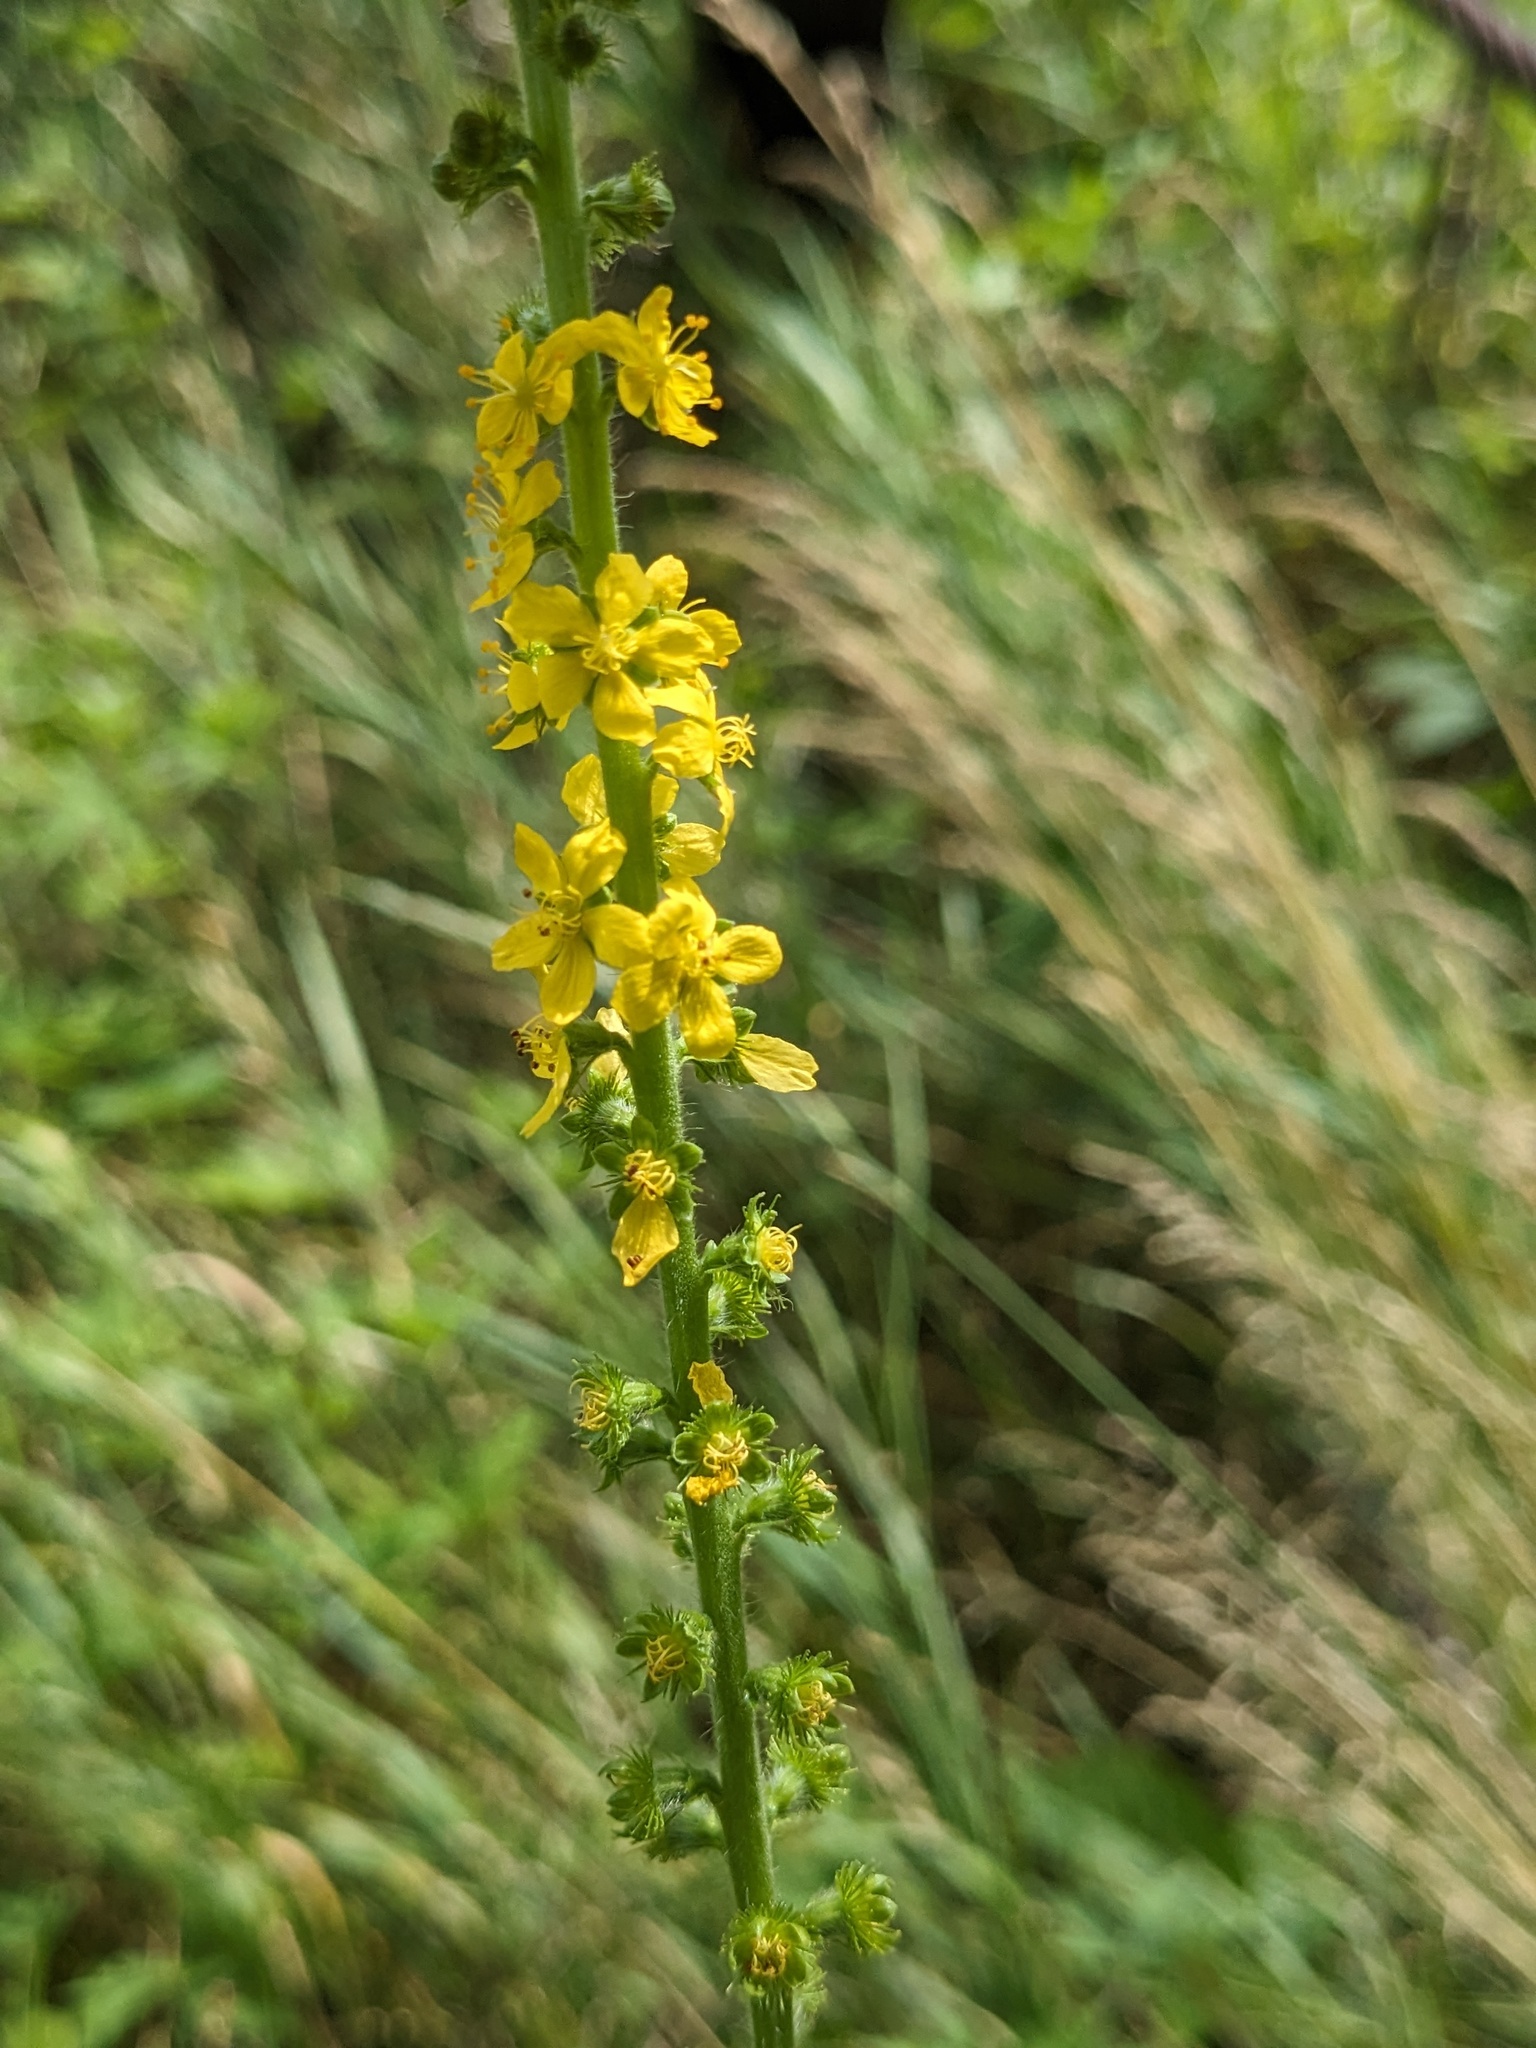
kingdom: Plantae
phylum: Tracheophyta
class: Magnoliopsida
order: Rosales
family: Rosaceae
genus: Agrimonia
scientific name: Agrimonia eupatoria
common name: Agrimony
